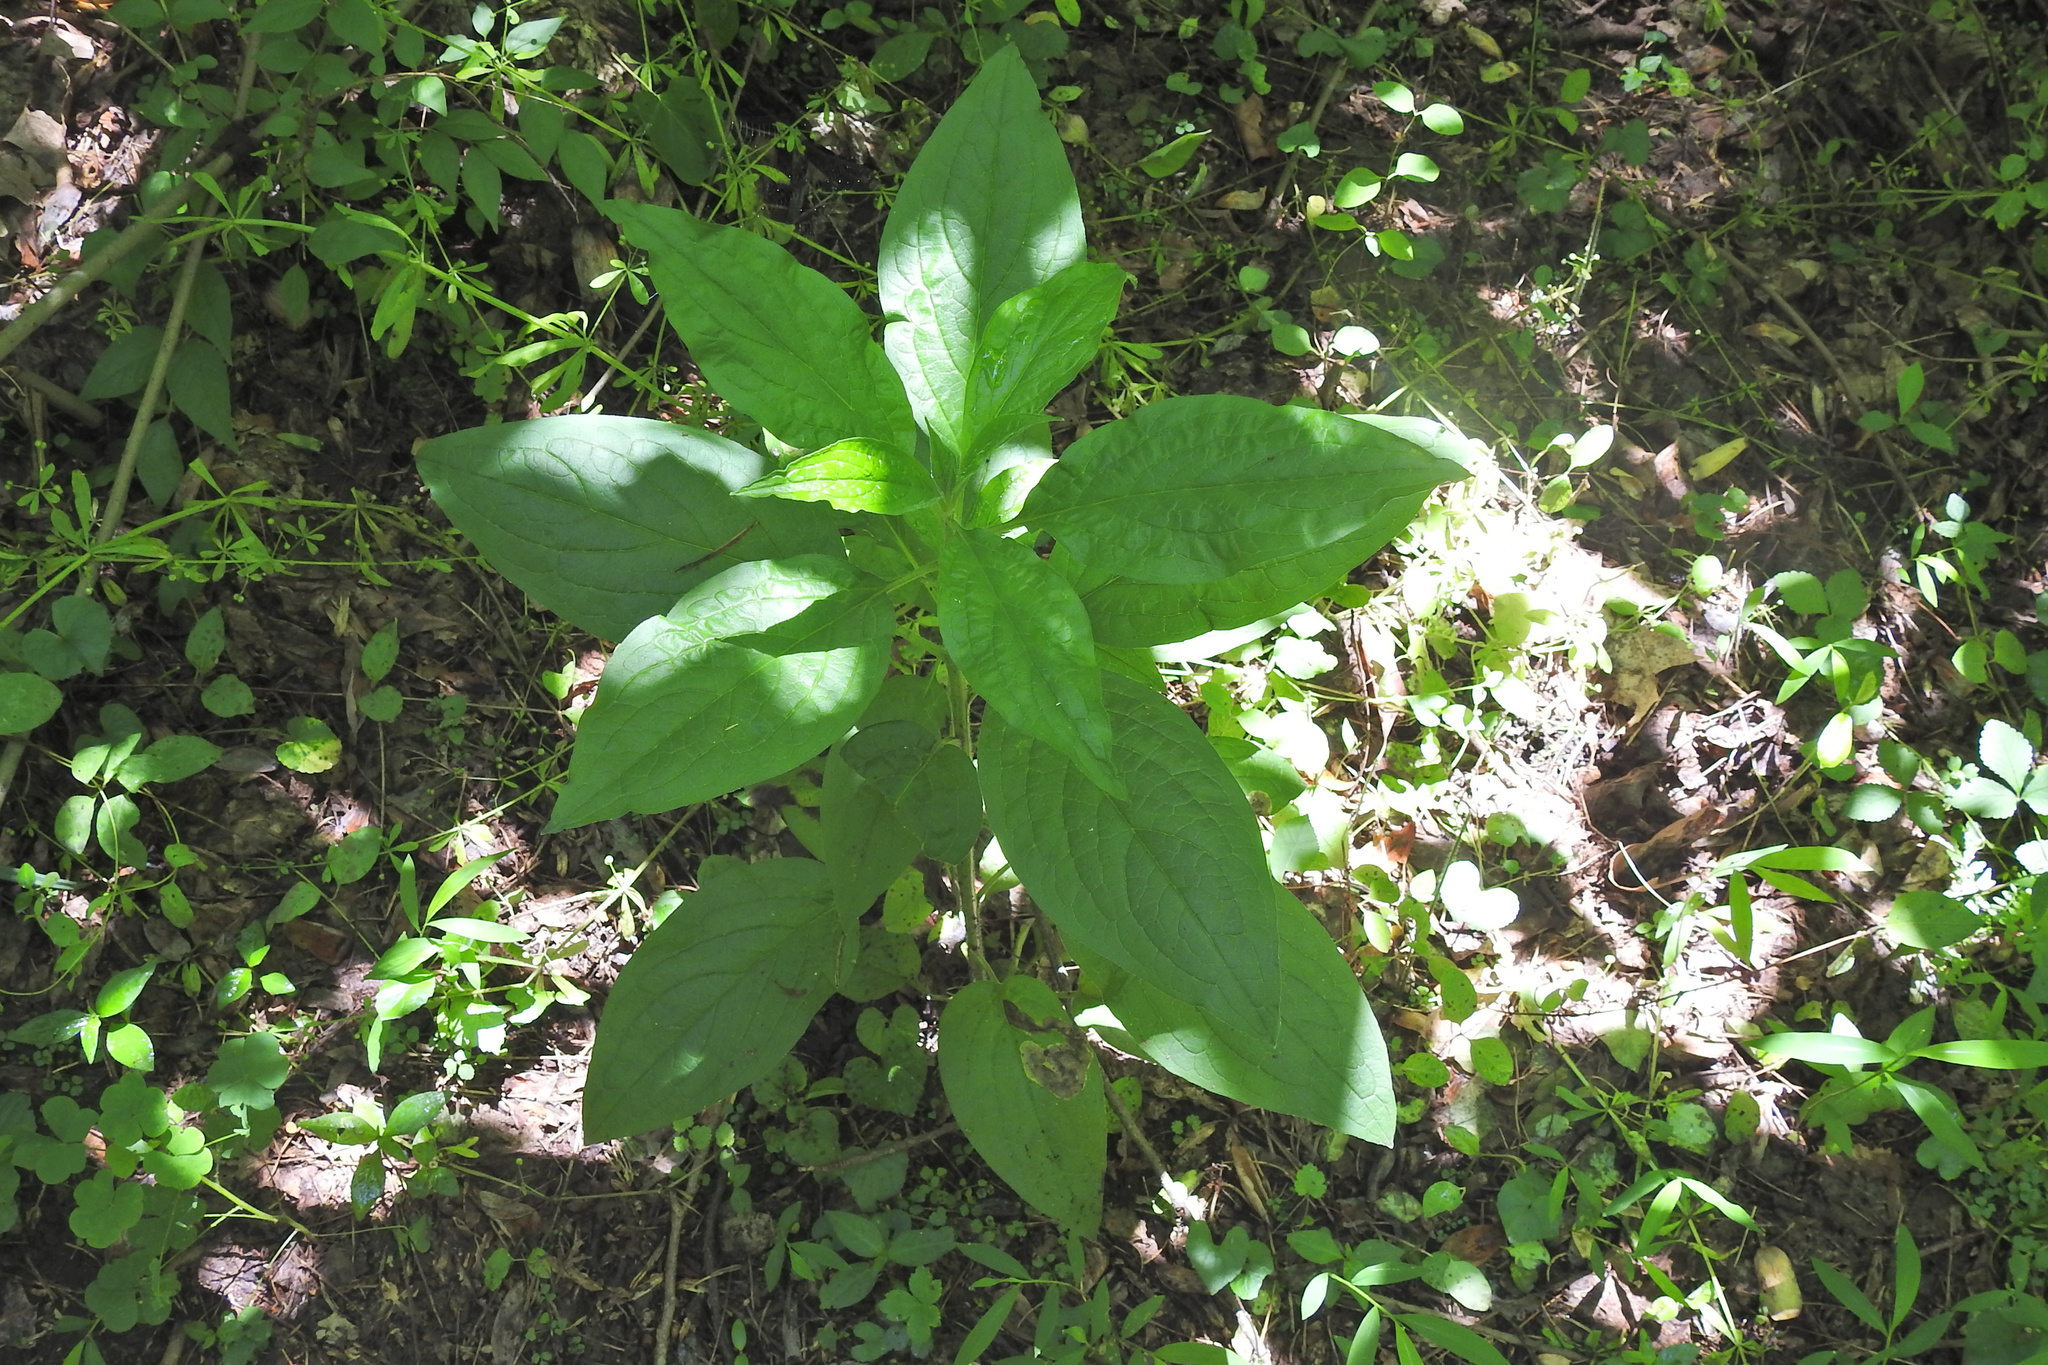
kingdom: Plantae
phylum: Tracheophyta
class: Magnoliopsida
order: Boraginales
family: Boraginaceae
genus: Hackelia
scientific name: Hackelia virginiana
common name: Beggar's-lice
